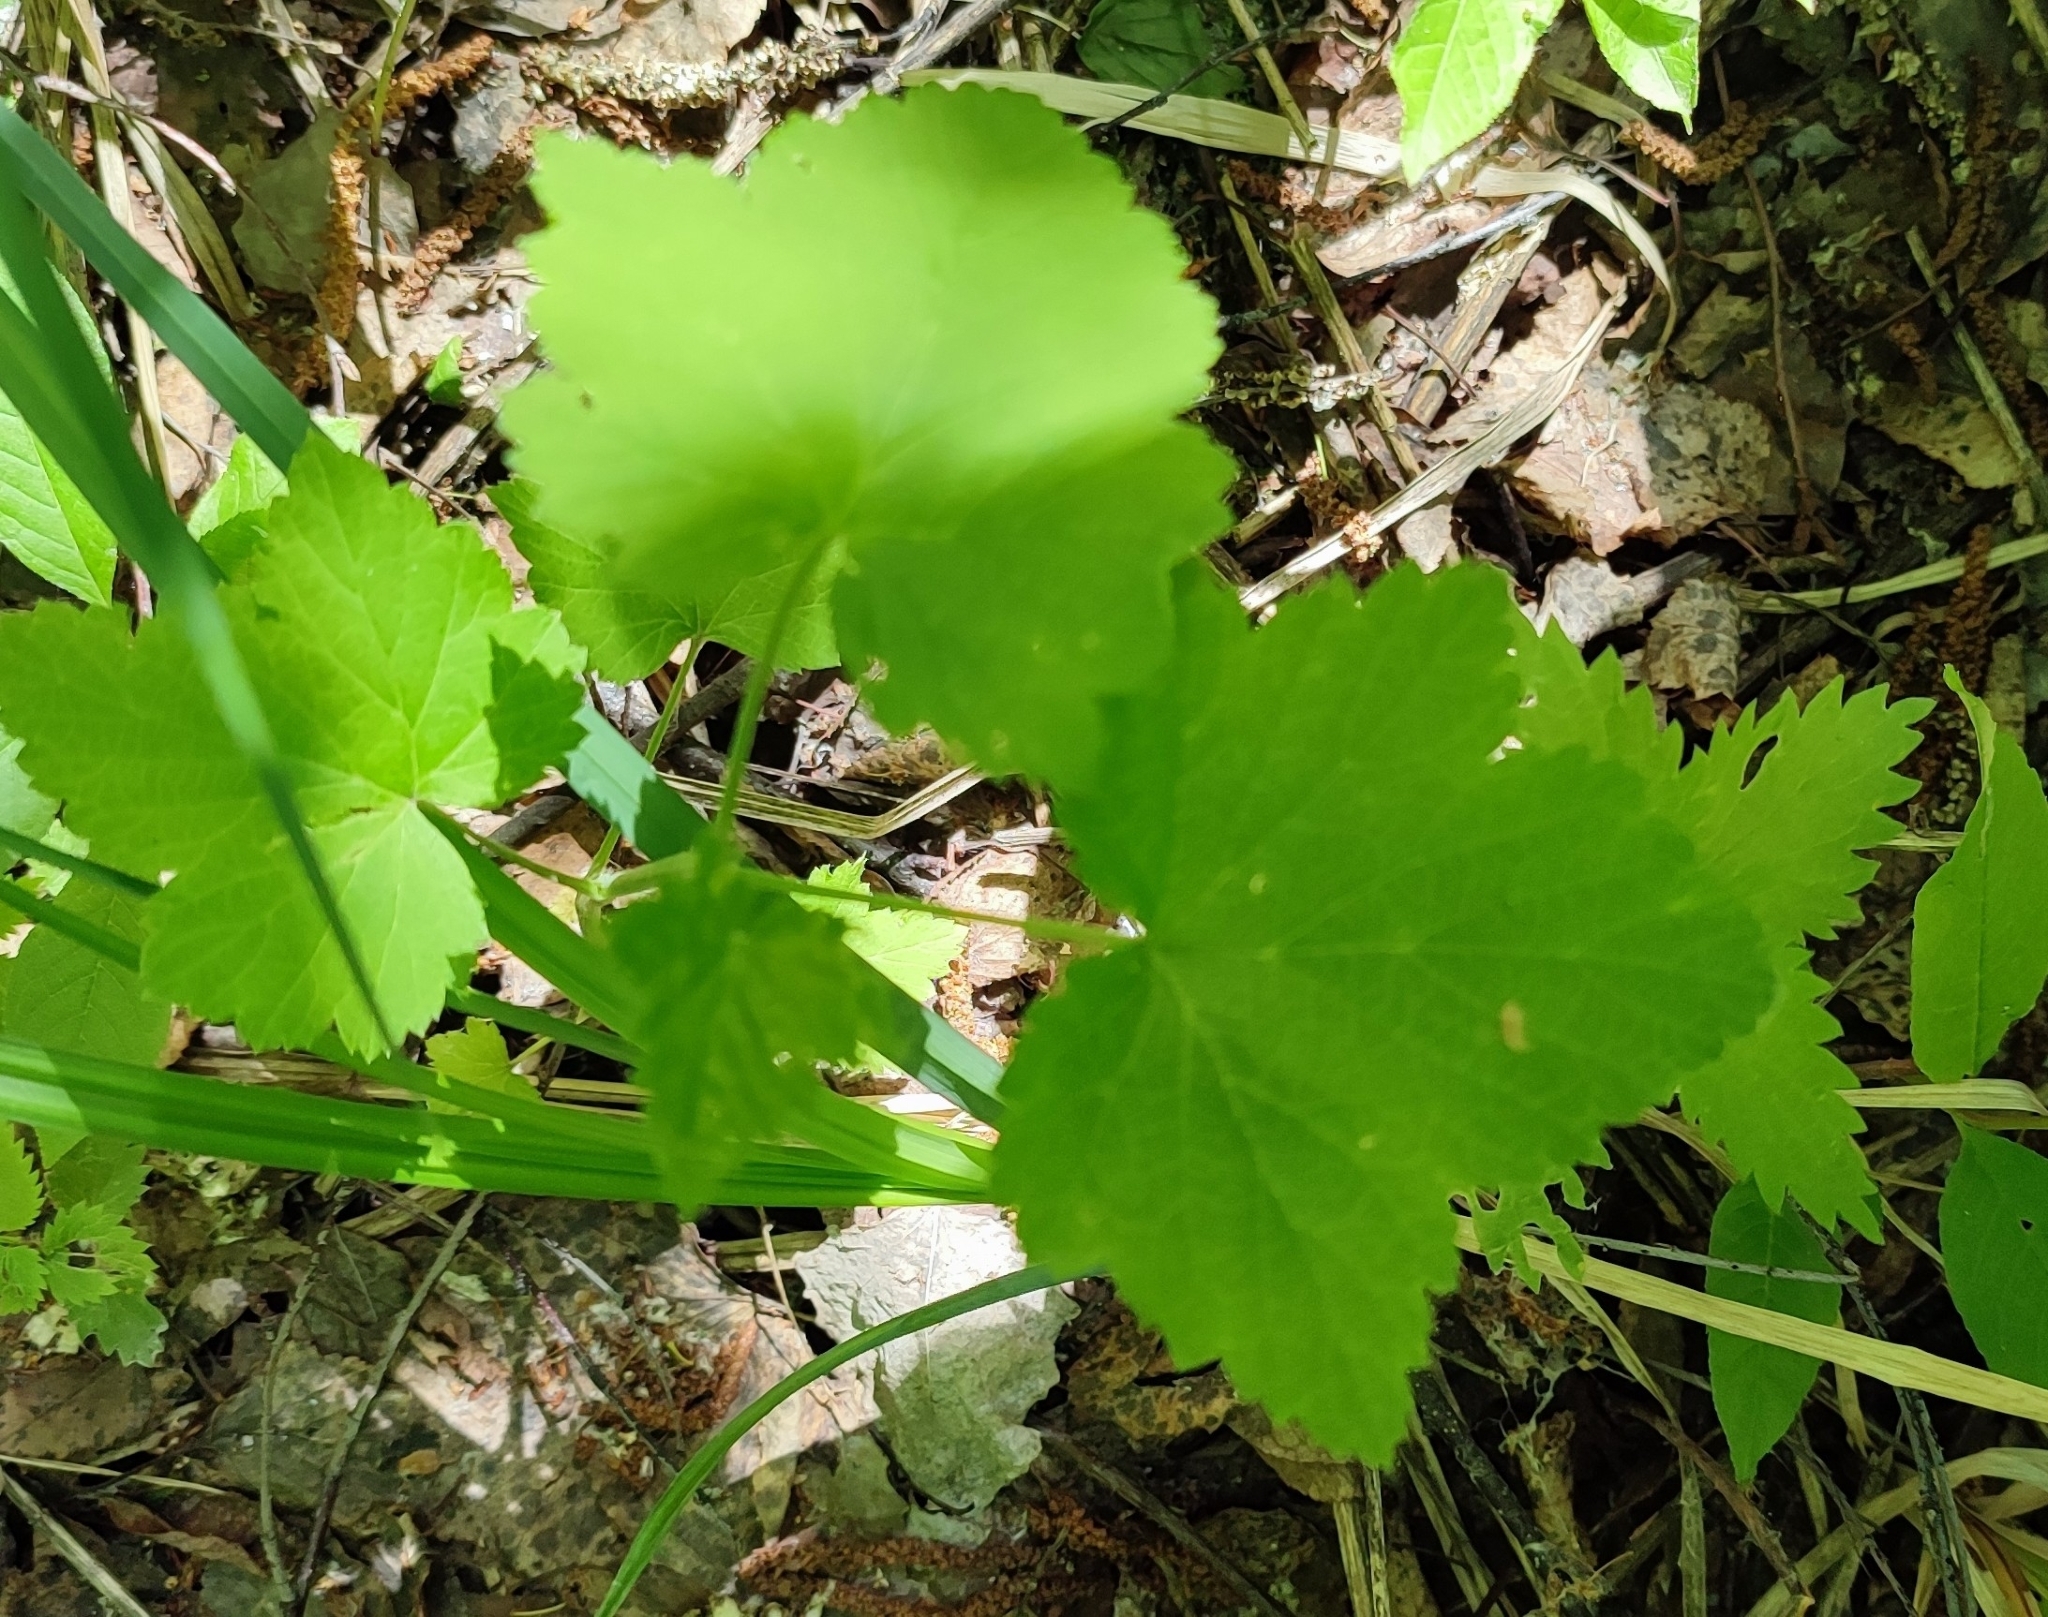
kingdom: Plantae
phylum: Tracheophyta
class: Magnoliopsida
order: Saxifragales
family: Grossulariaceae
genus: Ribes
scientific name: Ribes nigrum
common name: Black currant
